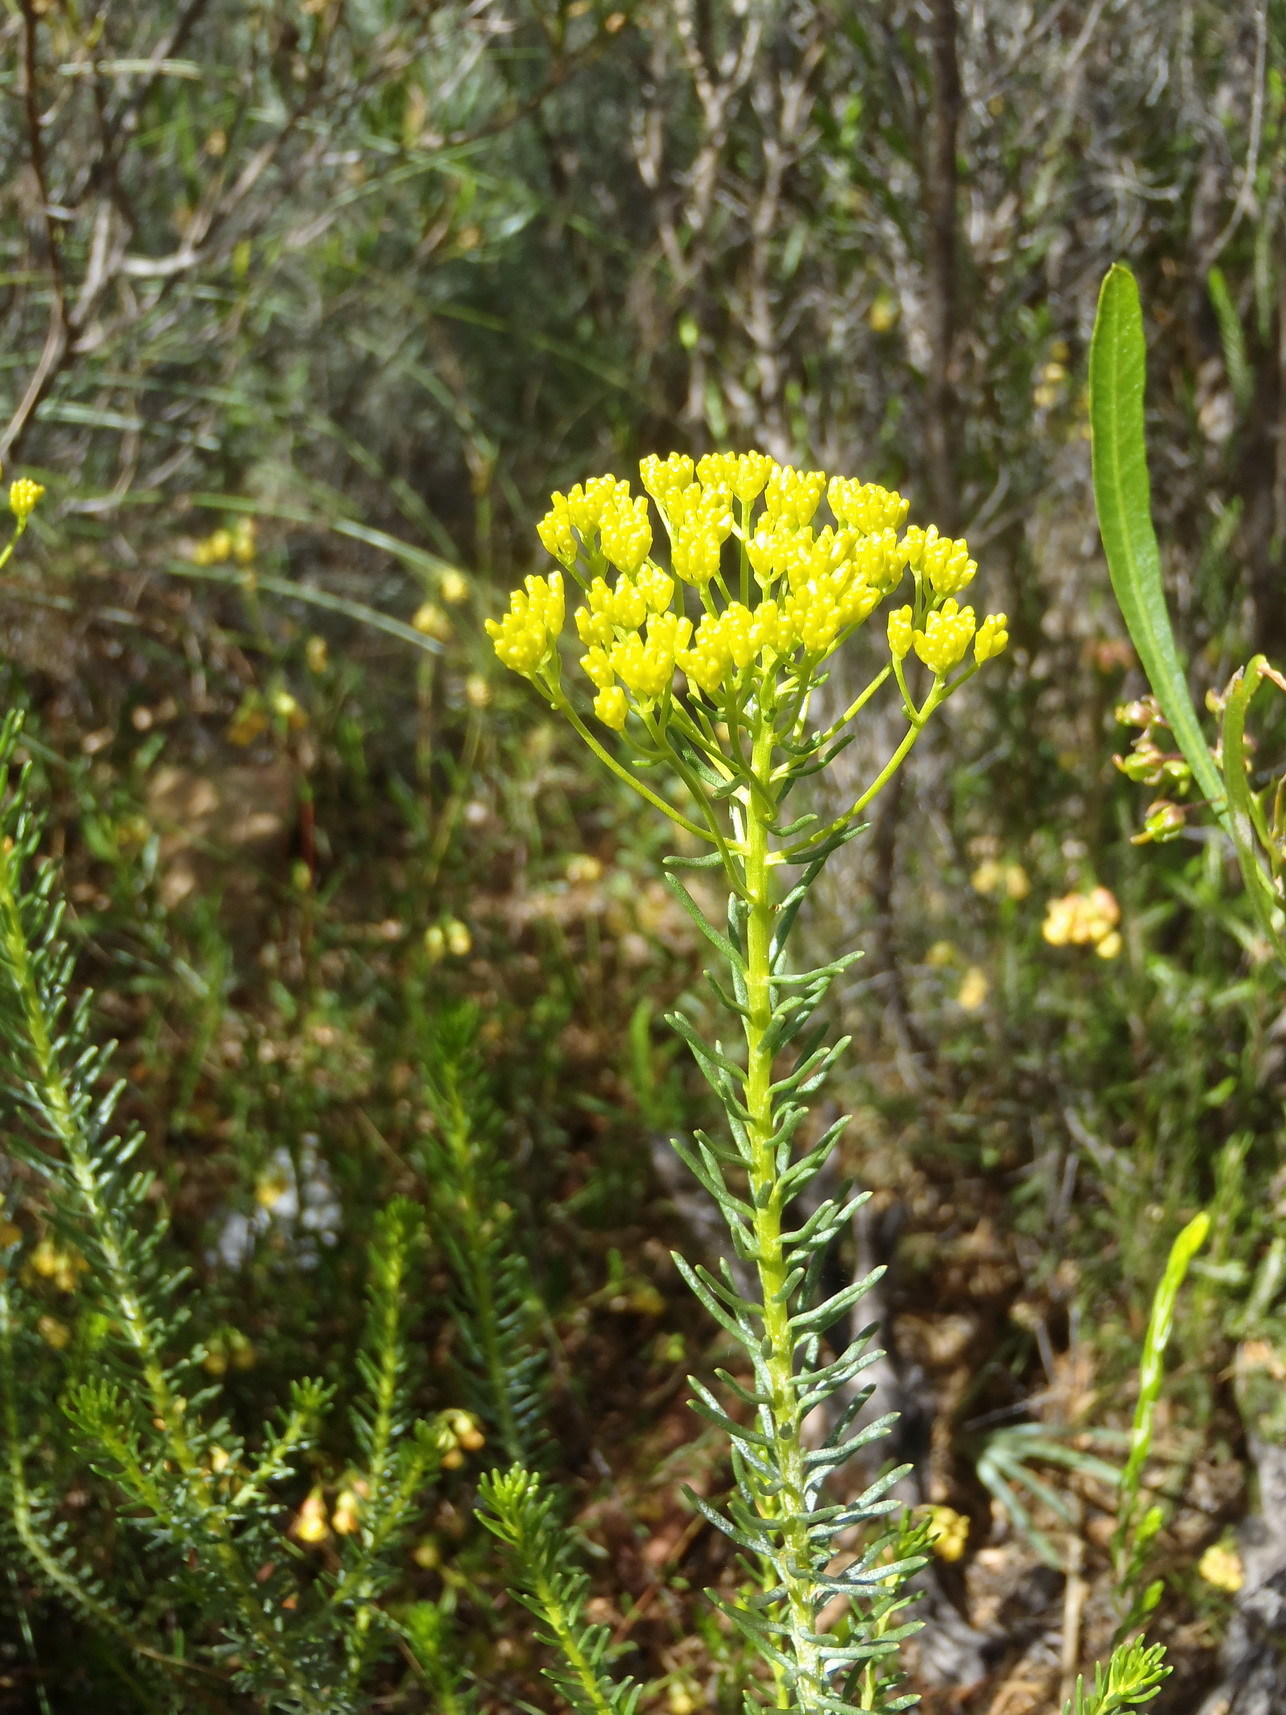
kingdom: Plantae
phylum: Tracheophyta
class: Magnoliopsida
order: Asterales
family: Asteraceae
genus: Athanasia
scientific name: Athanasia vestita
